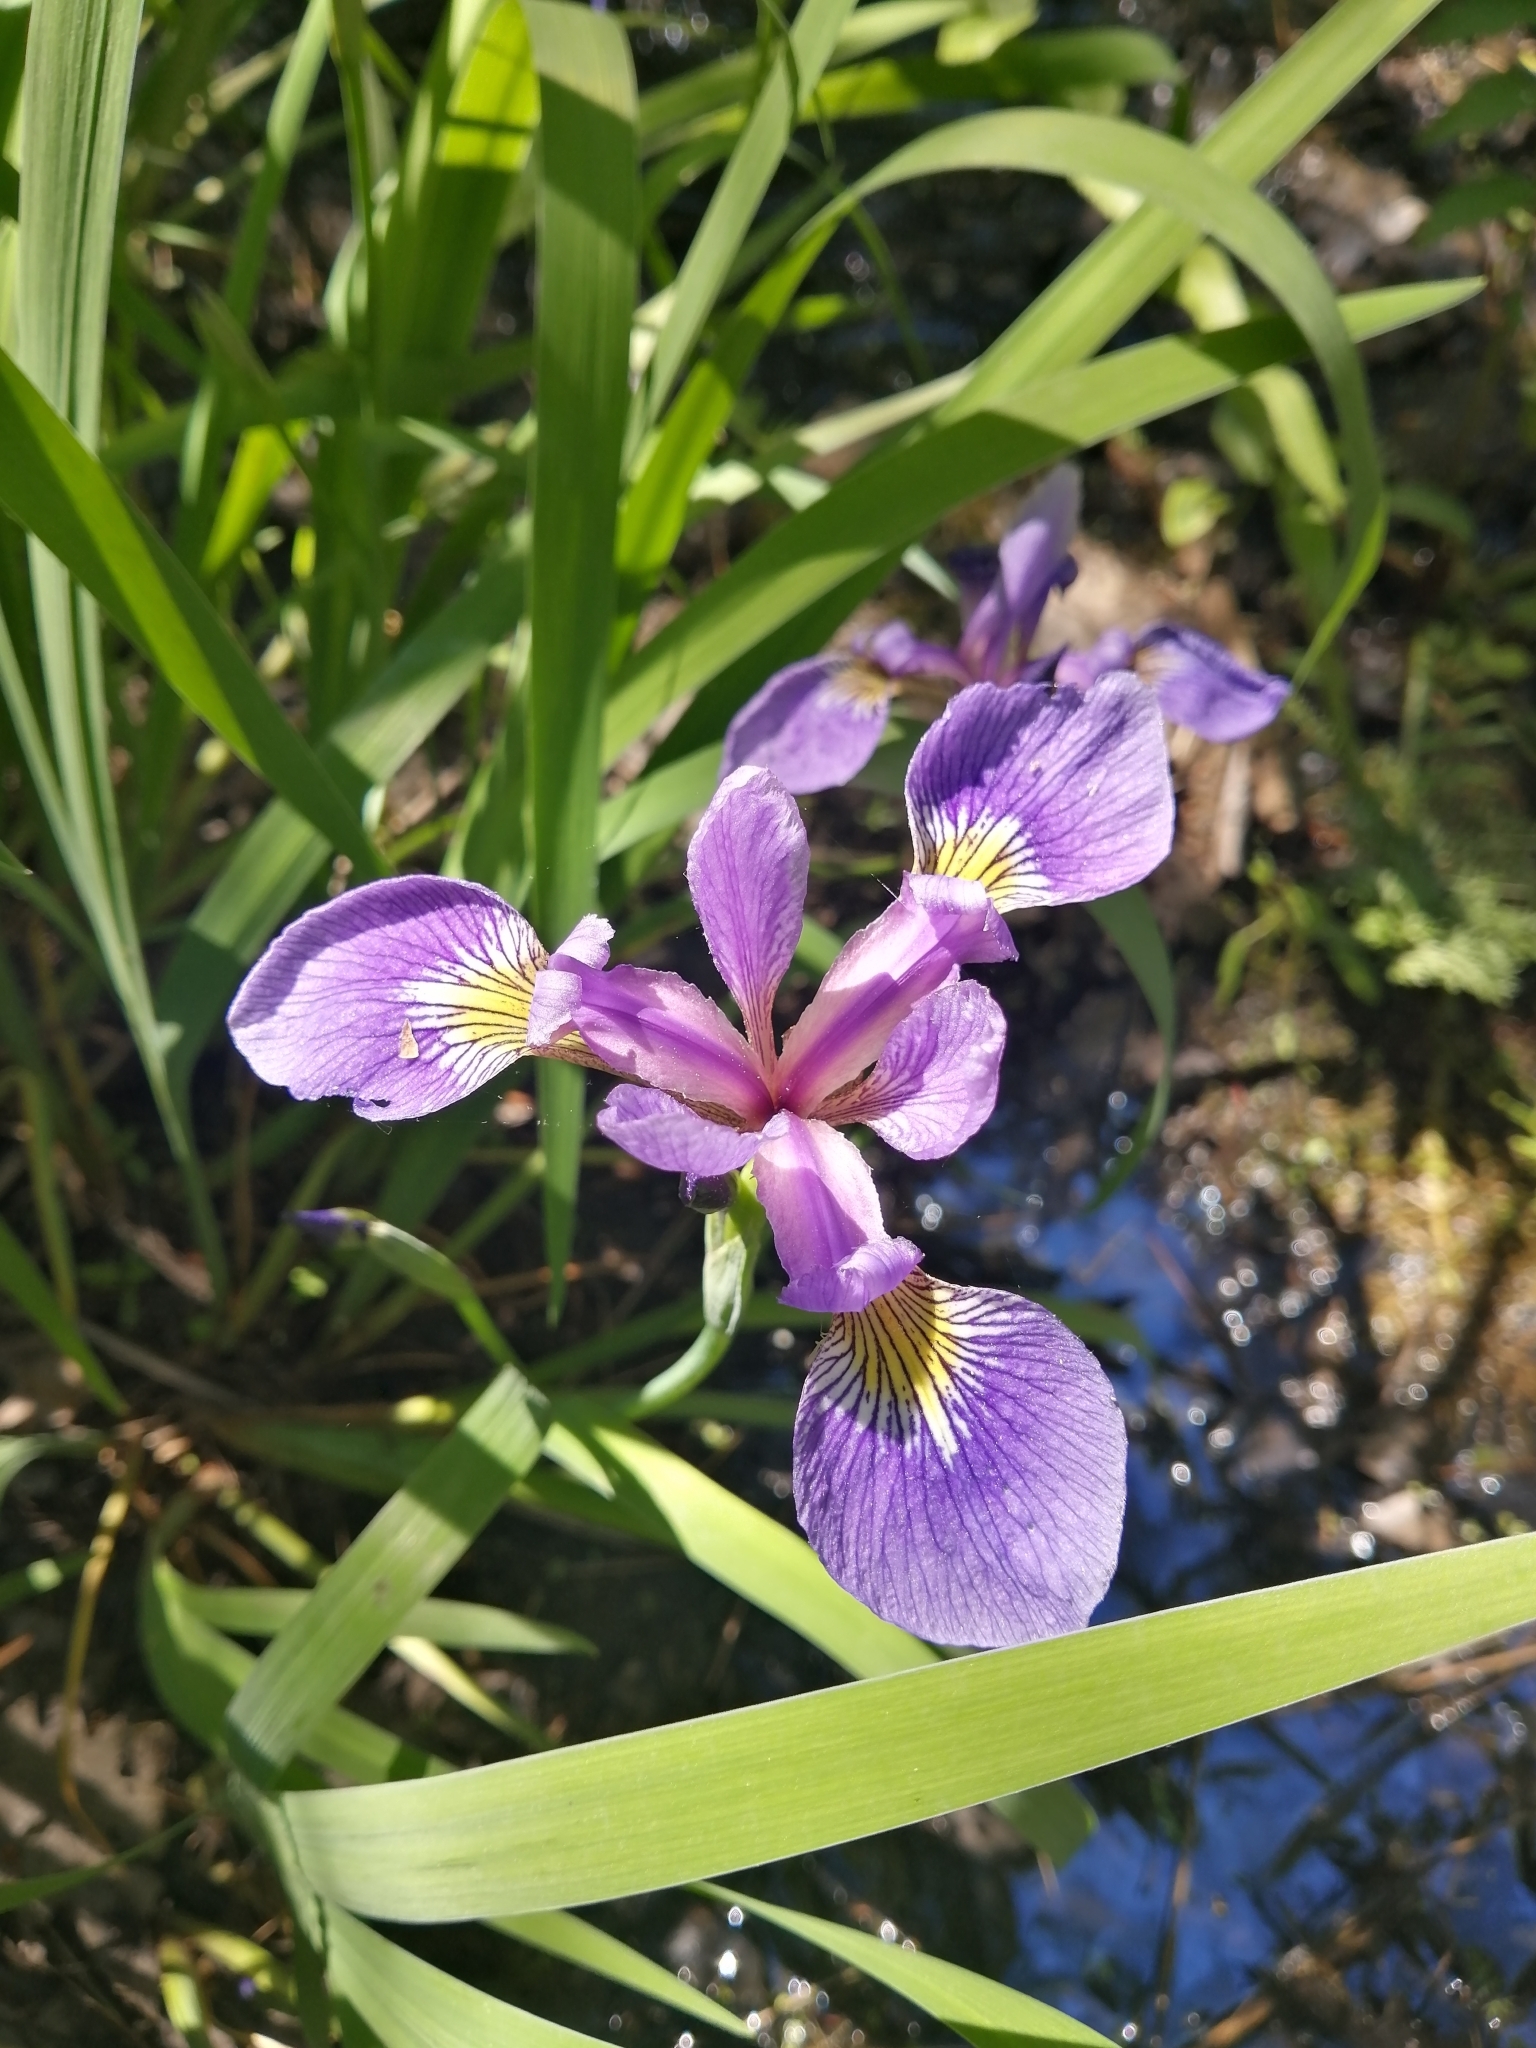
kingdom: Plantae
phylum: Tracheophyta
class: Liliopsida
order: Asparagales
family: Iridaceae
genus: Iris
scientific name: Iris versicolor
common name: Purple iris
